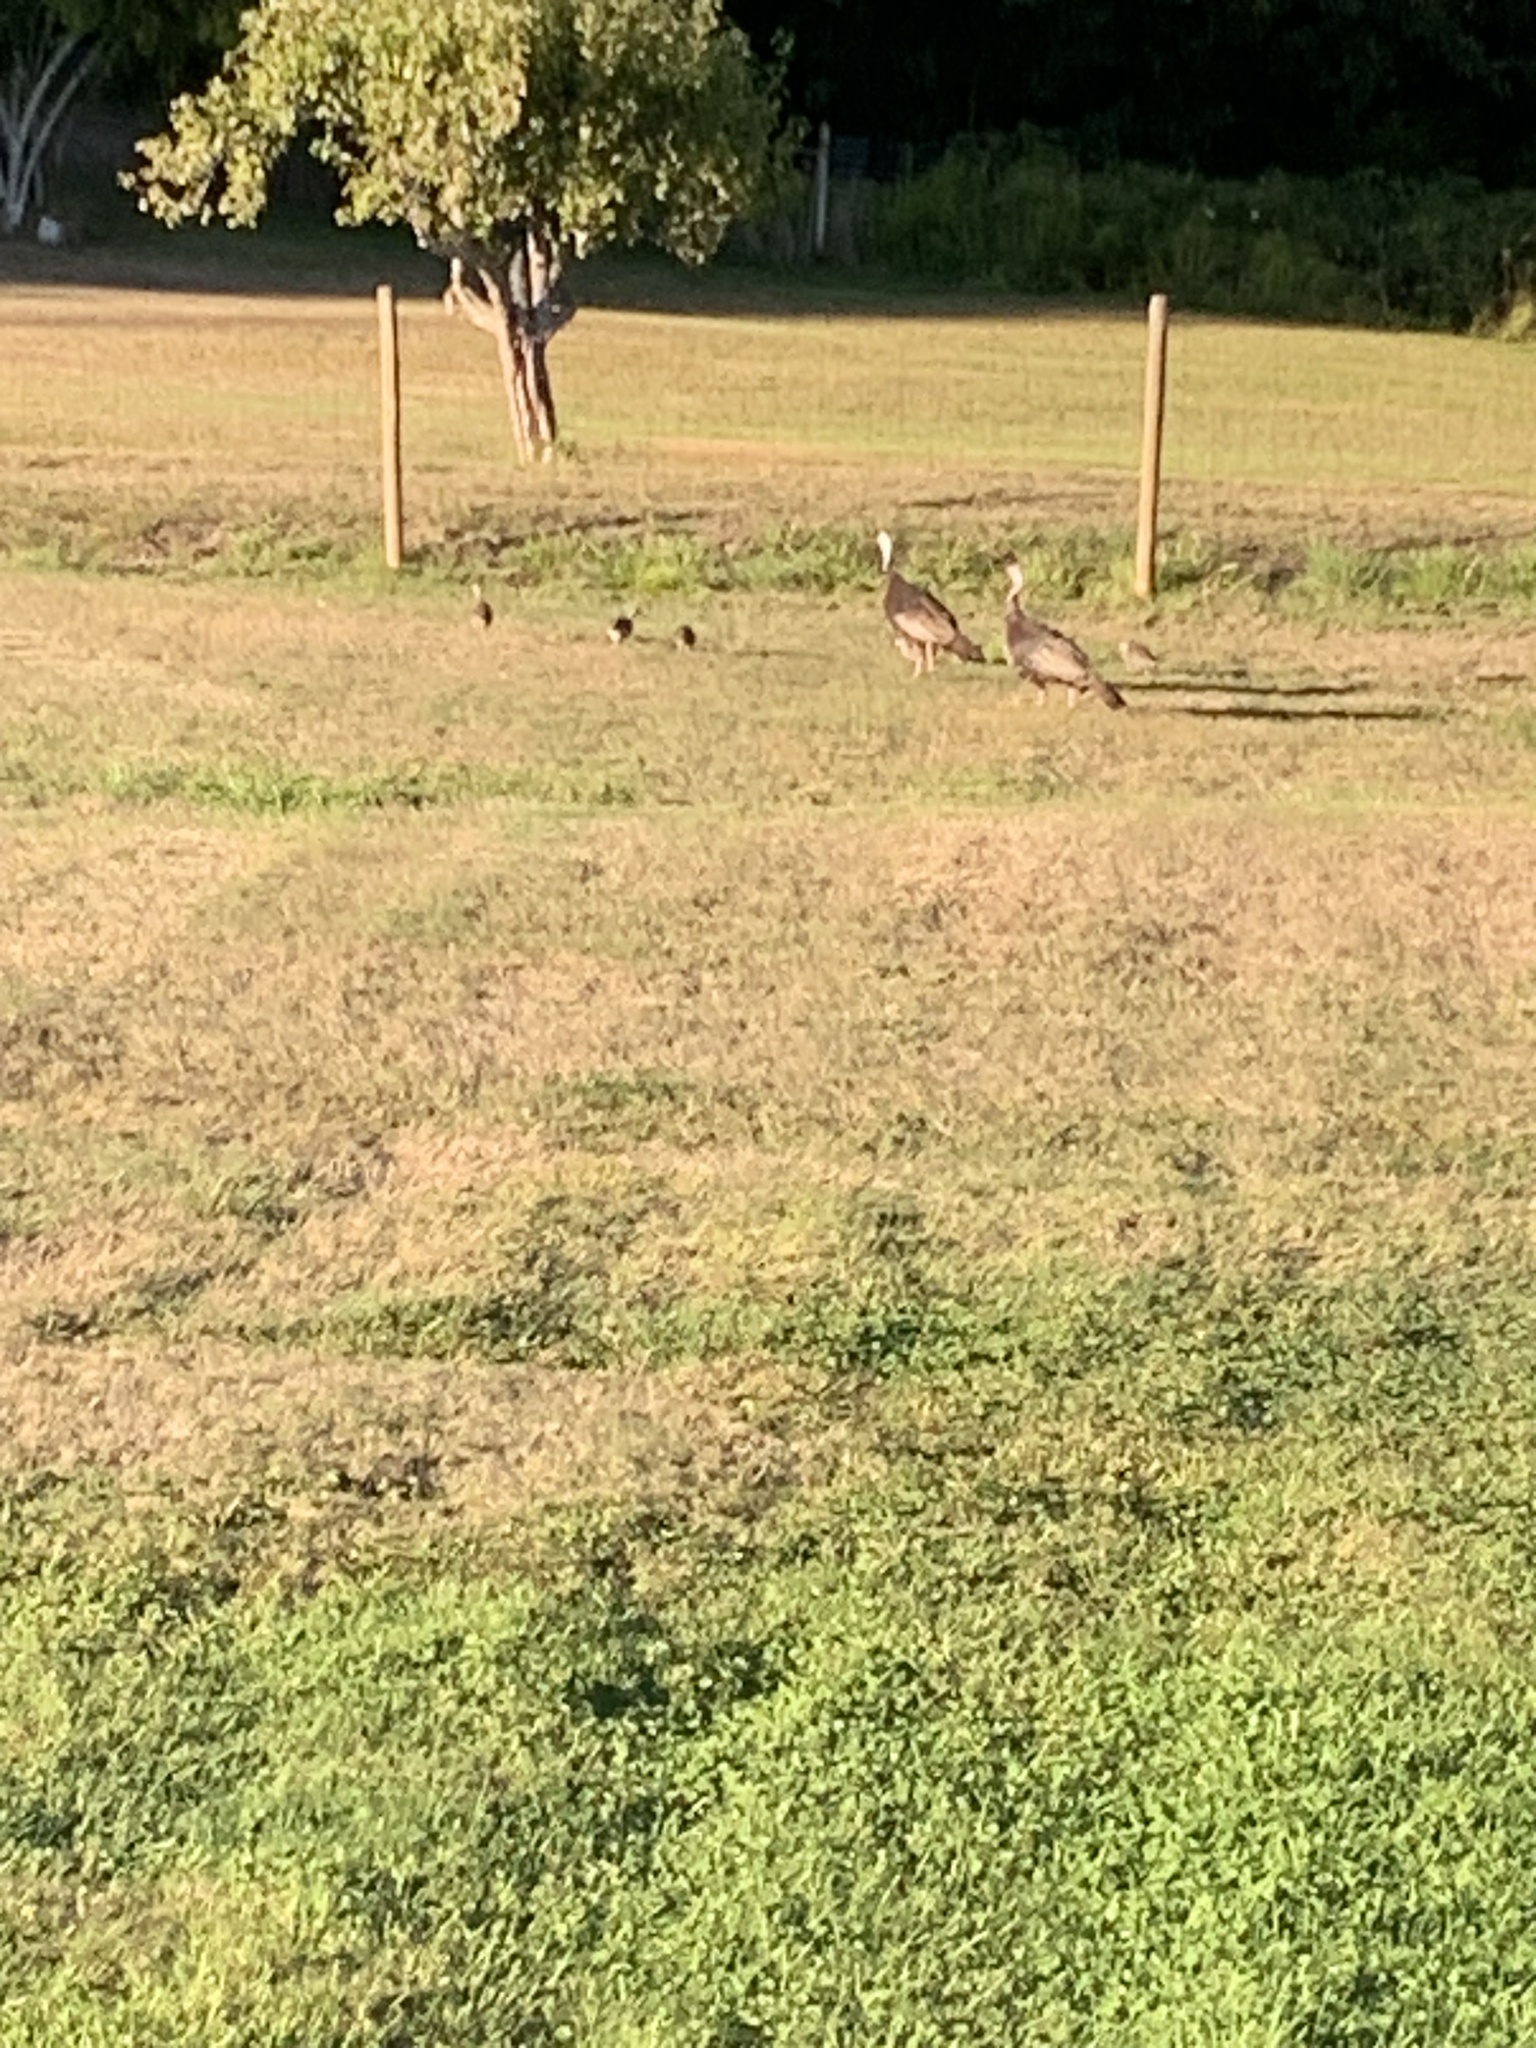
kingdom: Animalia
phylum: Chordata
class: Aves
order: Galliformes
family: Phasianidae
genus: Meleagris
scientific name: Meleagris gallopavo
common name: Wild turkey
